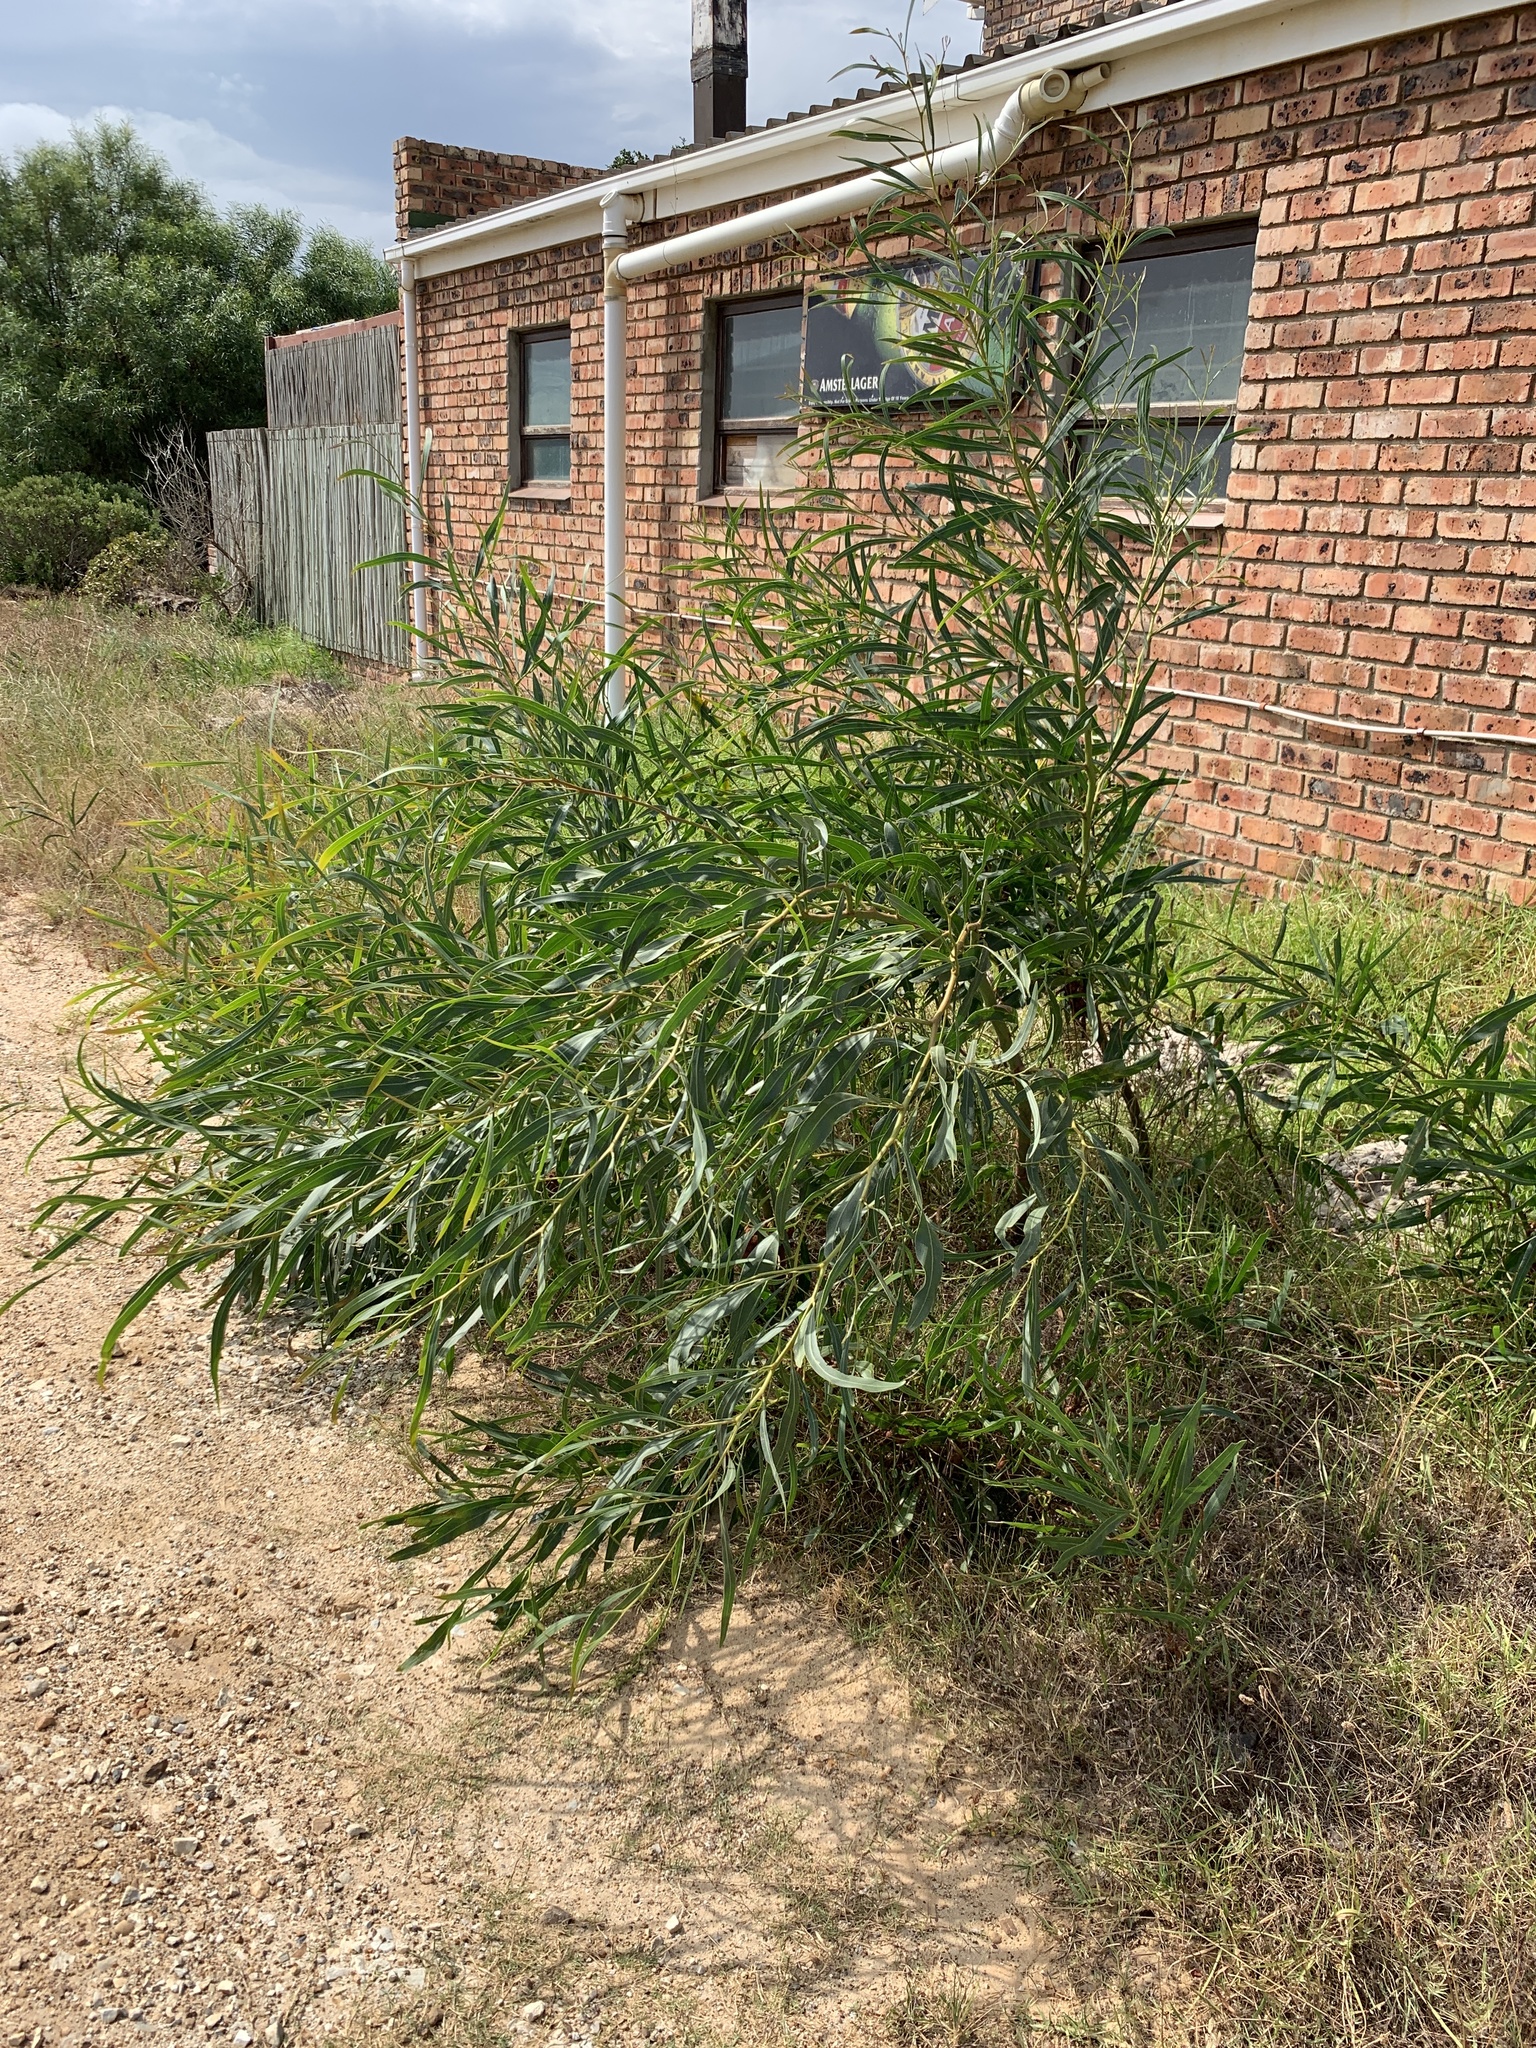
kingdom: Plantae
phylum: Tracheophyta
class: Magnoliopsida
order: Fabales
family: Fabaceae
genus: Acacia
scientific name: Acacia saligna
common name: Orange wattle
